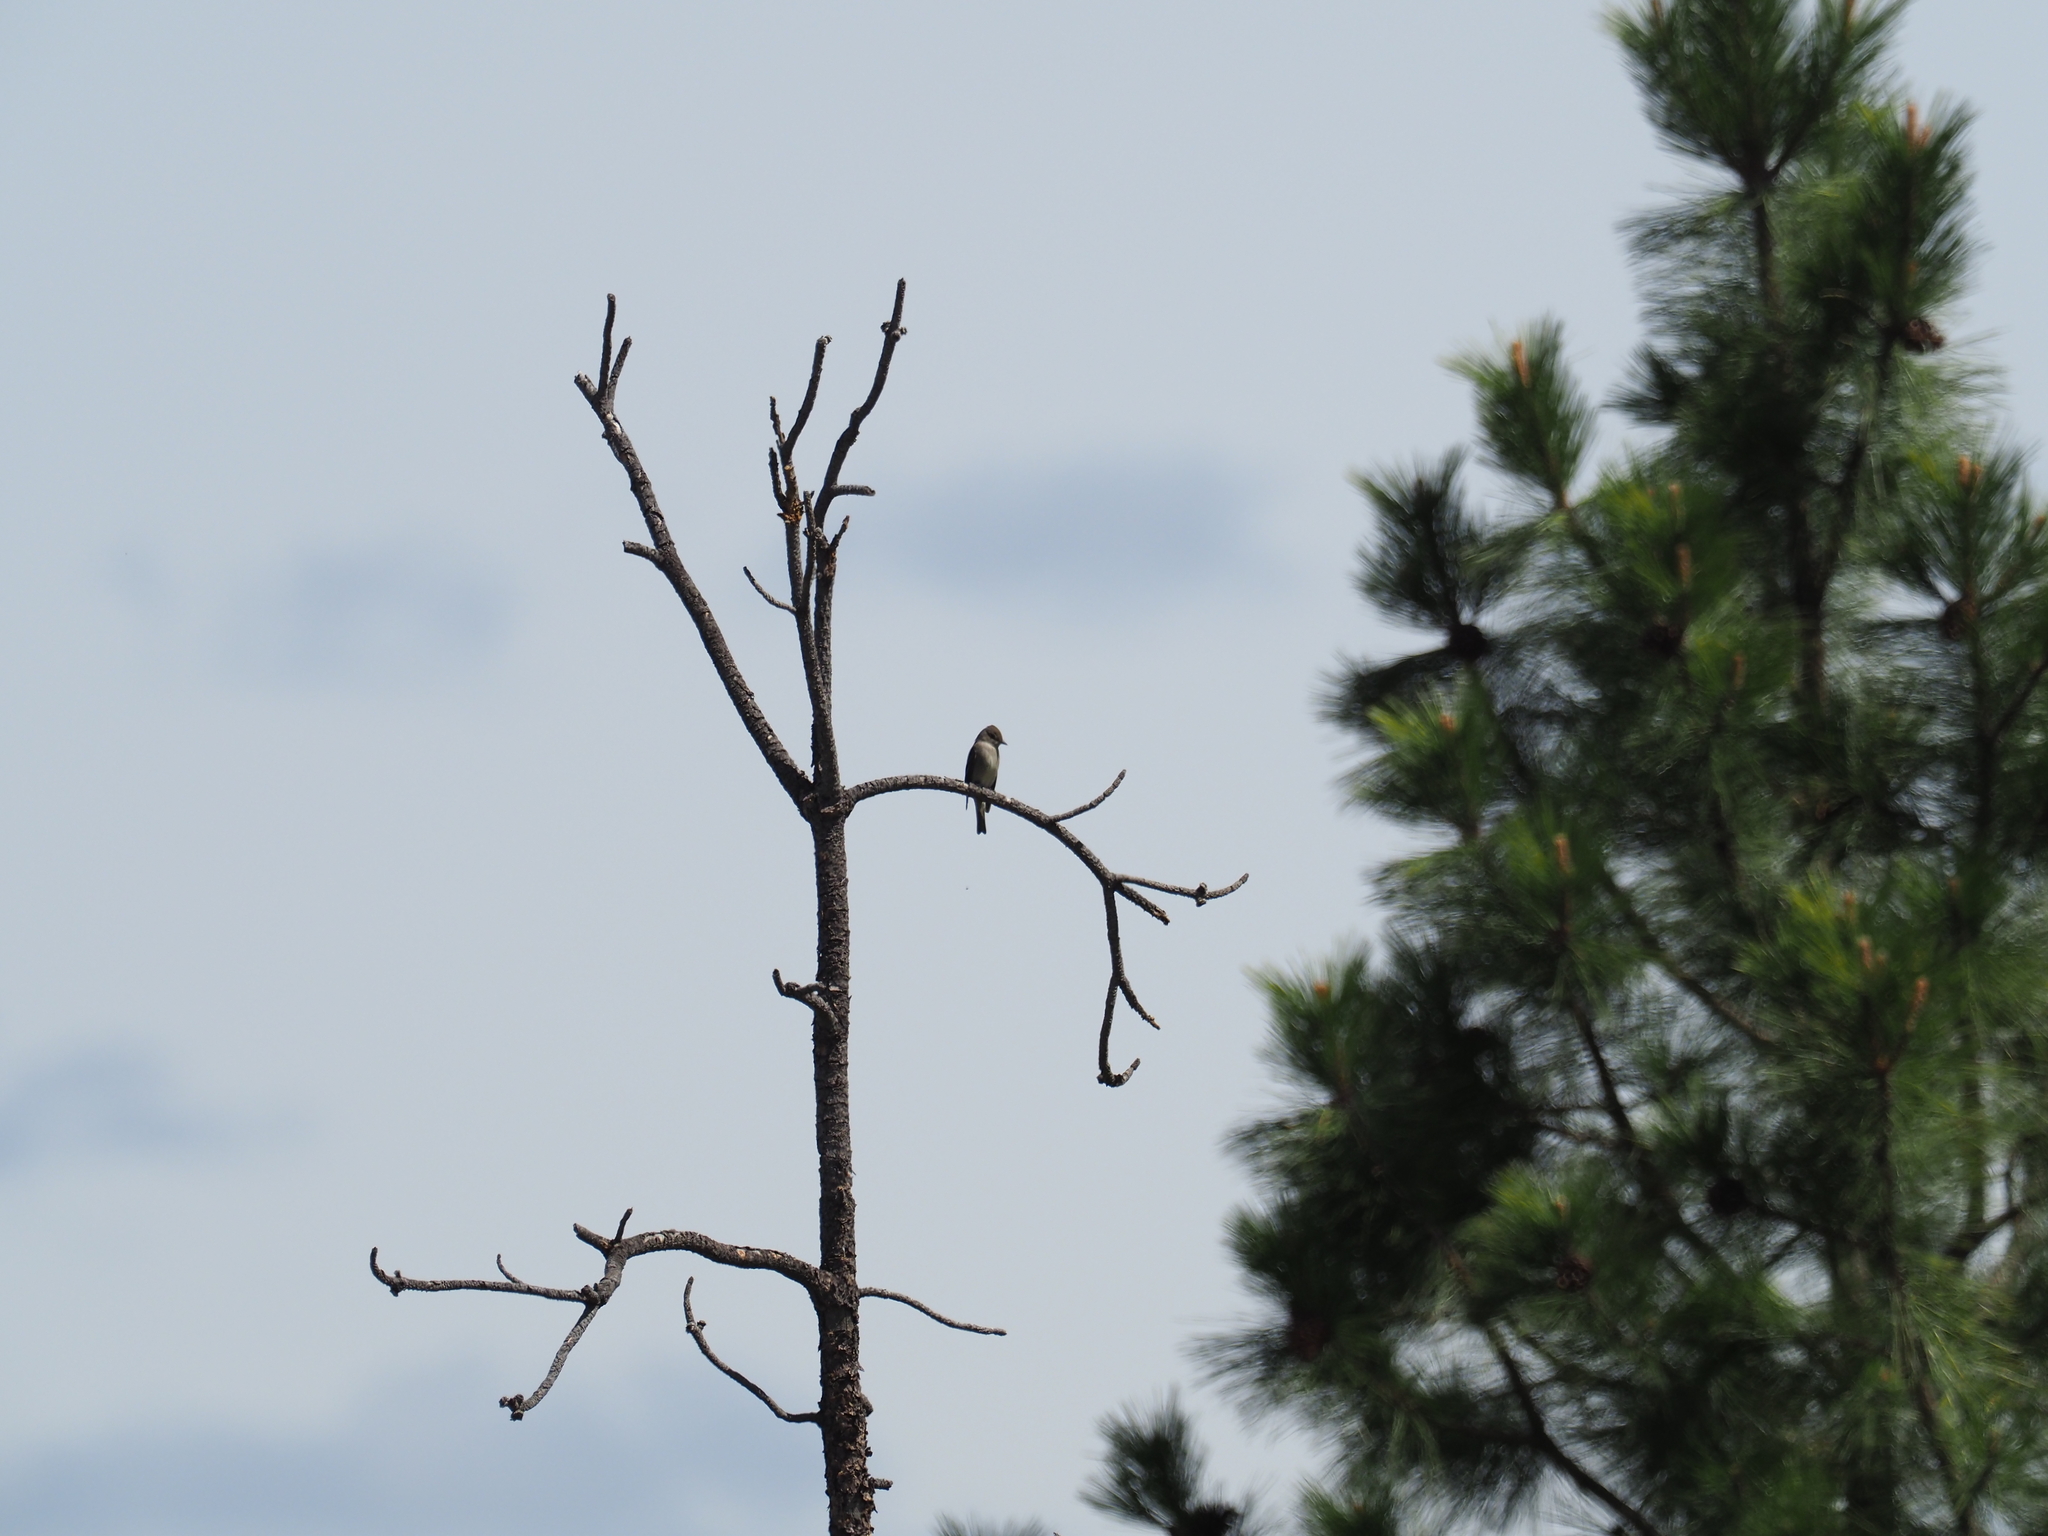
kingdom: Animalia
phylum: Chordata
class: Aves
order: Passeriformes
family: Tyrannidae
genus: Contopus
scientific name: Contopus sordidulus
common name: Western wood-pewee
